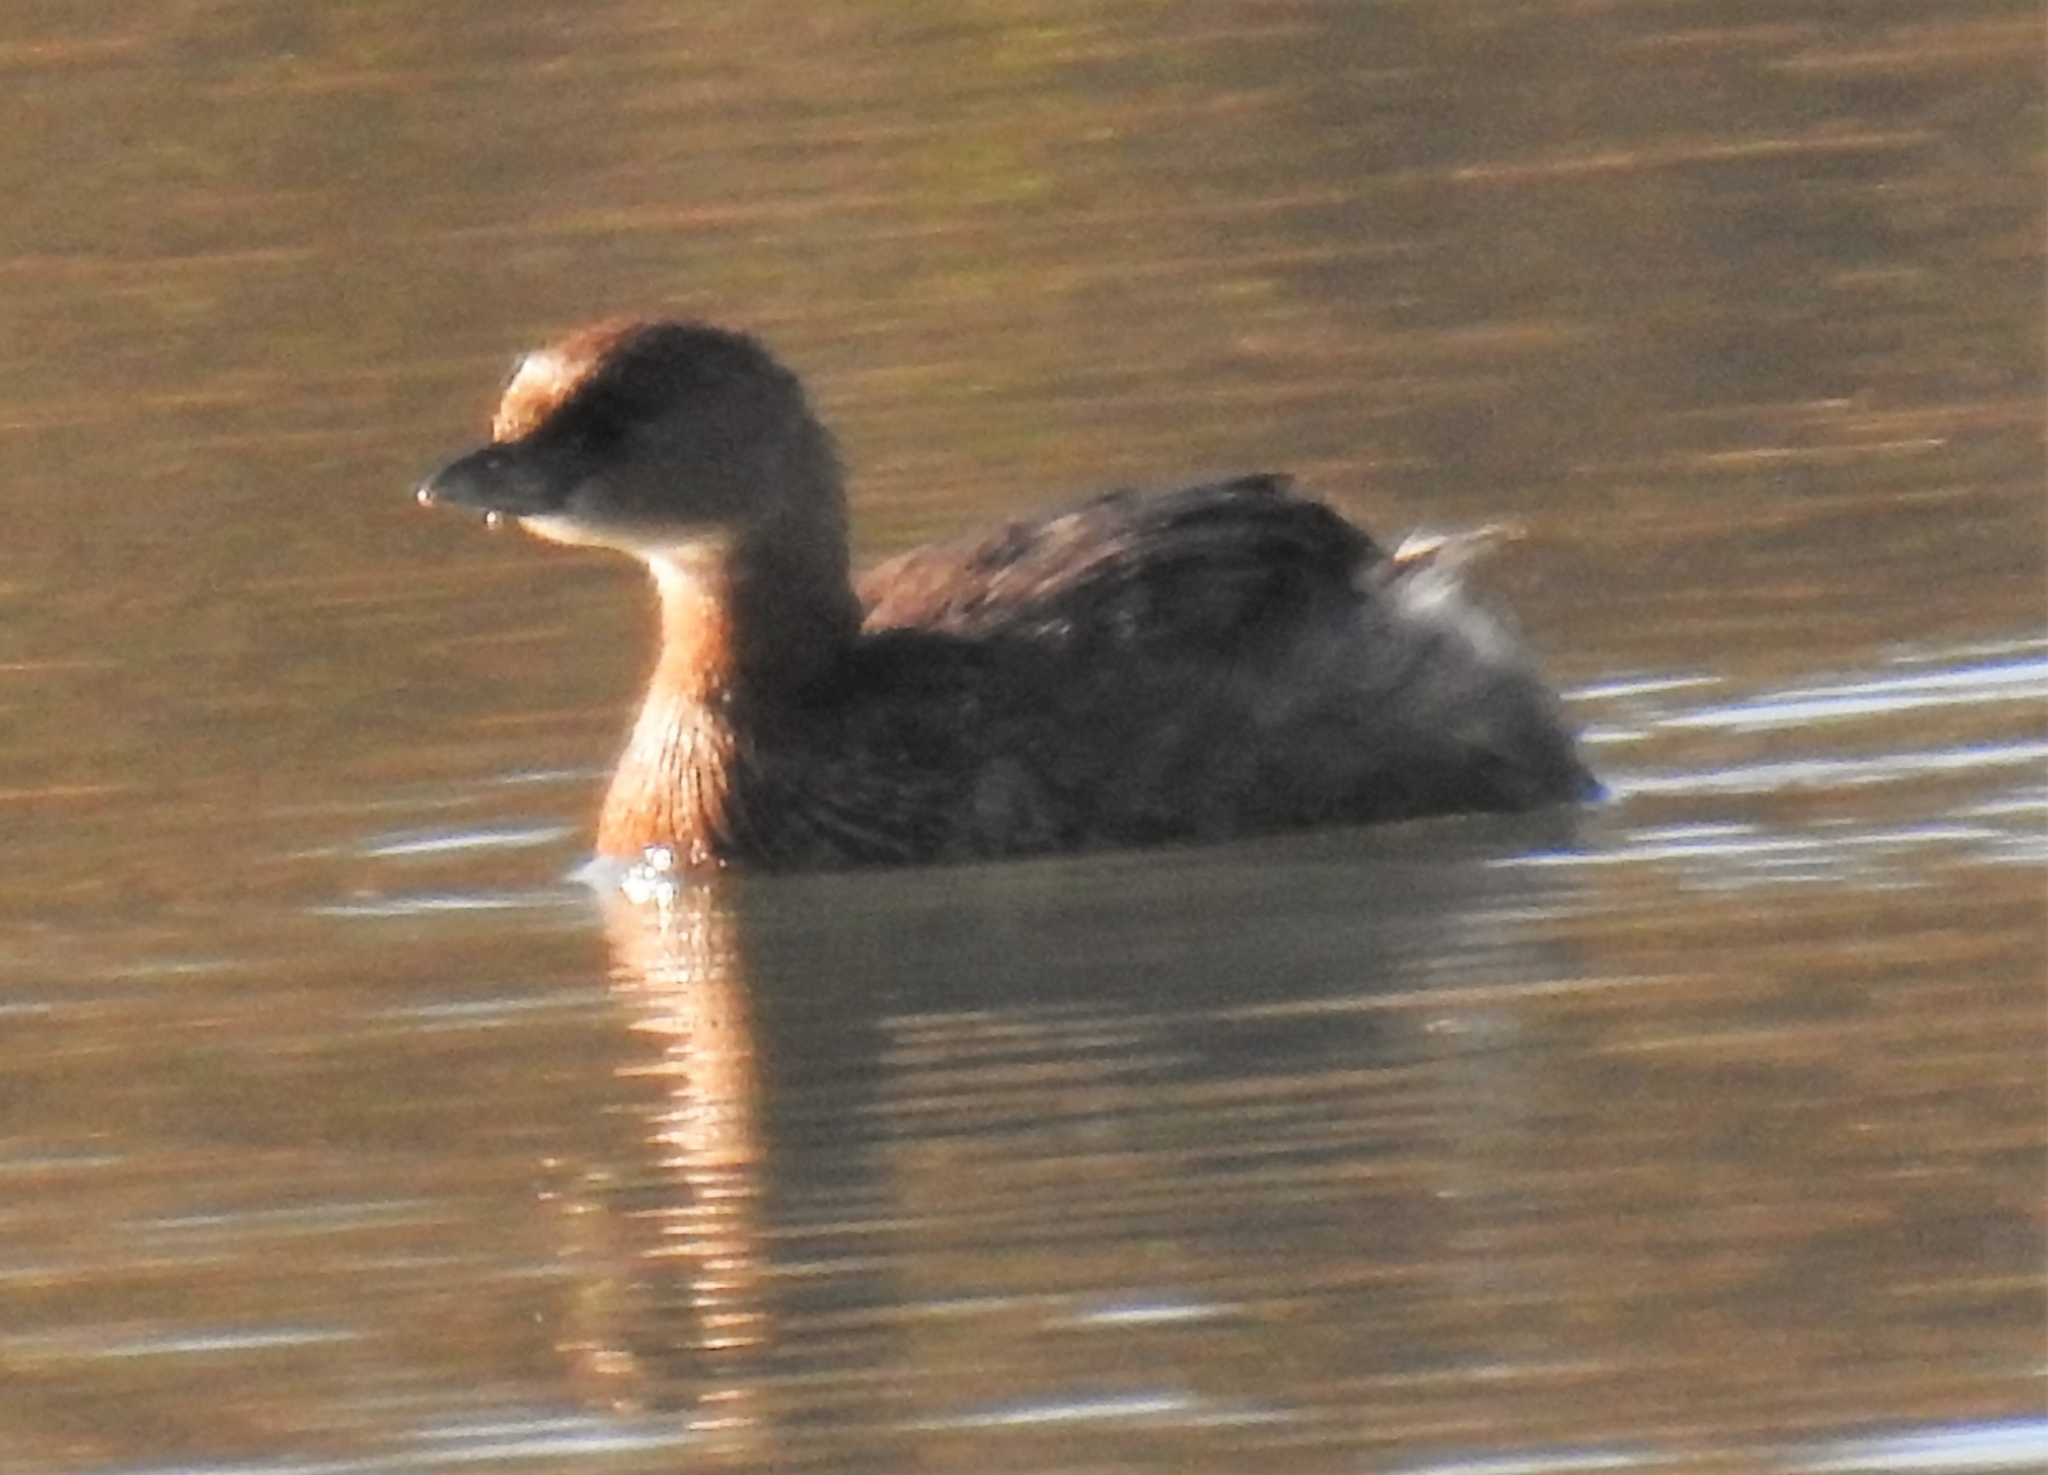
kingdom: Animalia
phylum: Chordata
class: Aves
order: Podicipediformes
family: Podicipedidae
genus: Podilymbus
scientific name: Podilymbus podiceps
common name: Pied-billed grebe
